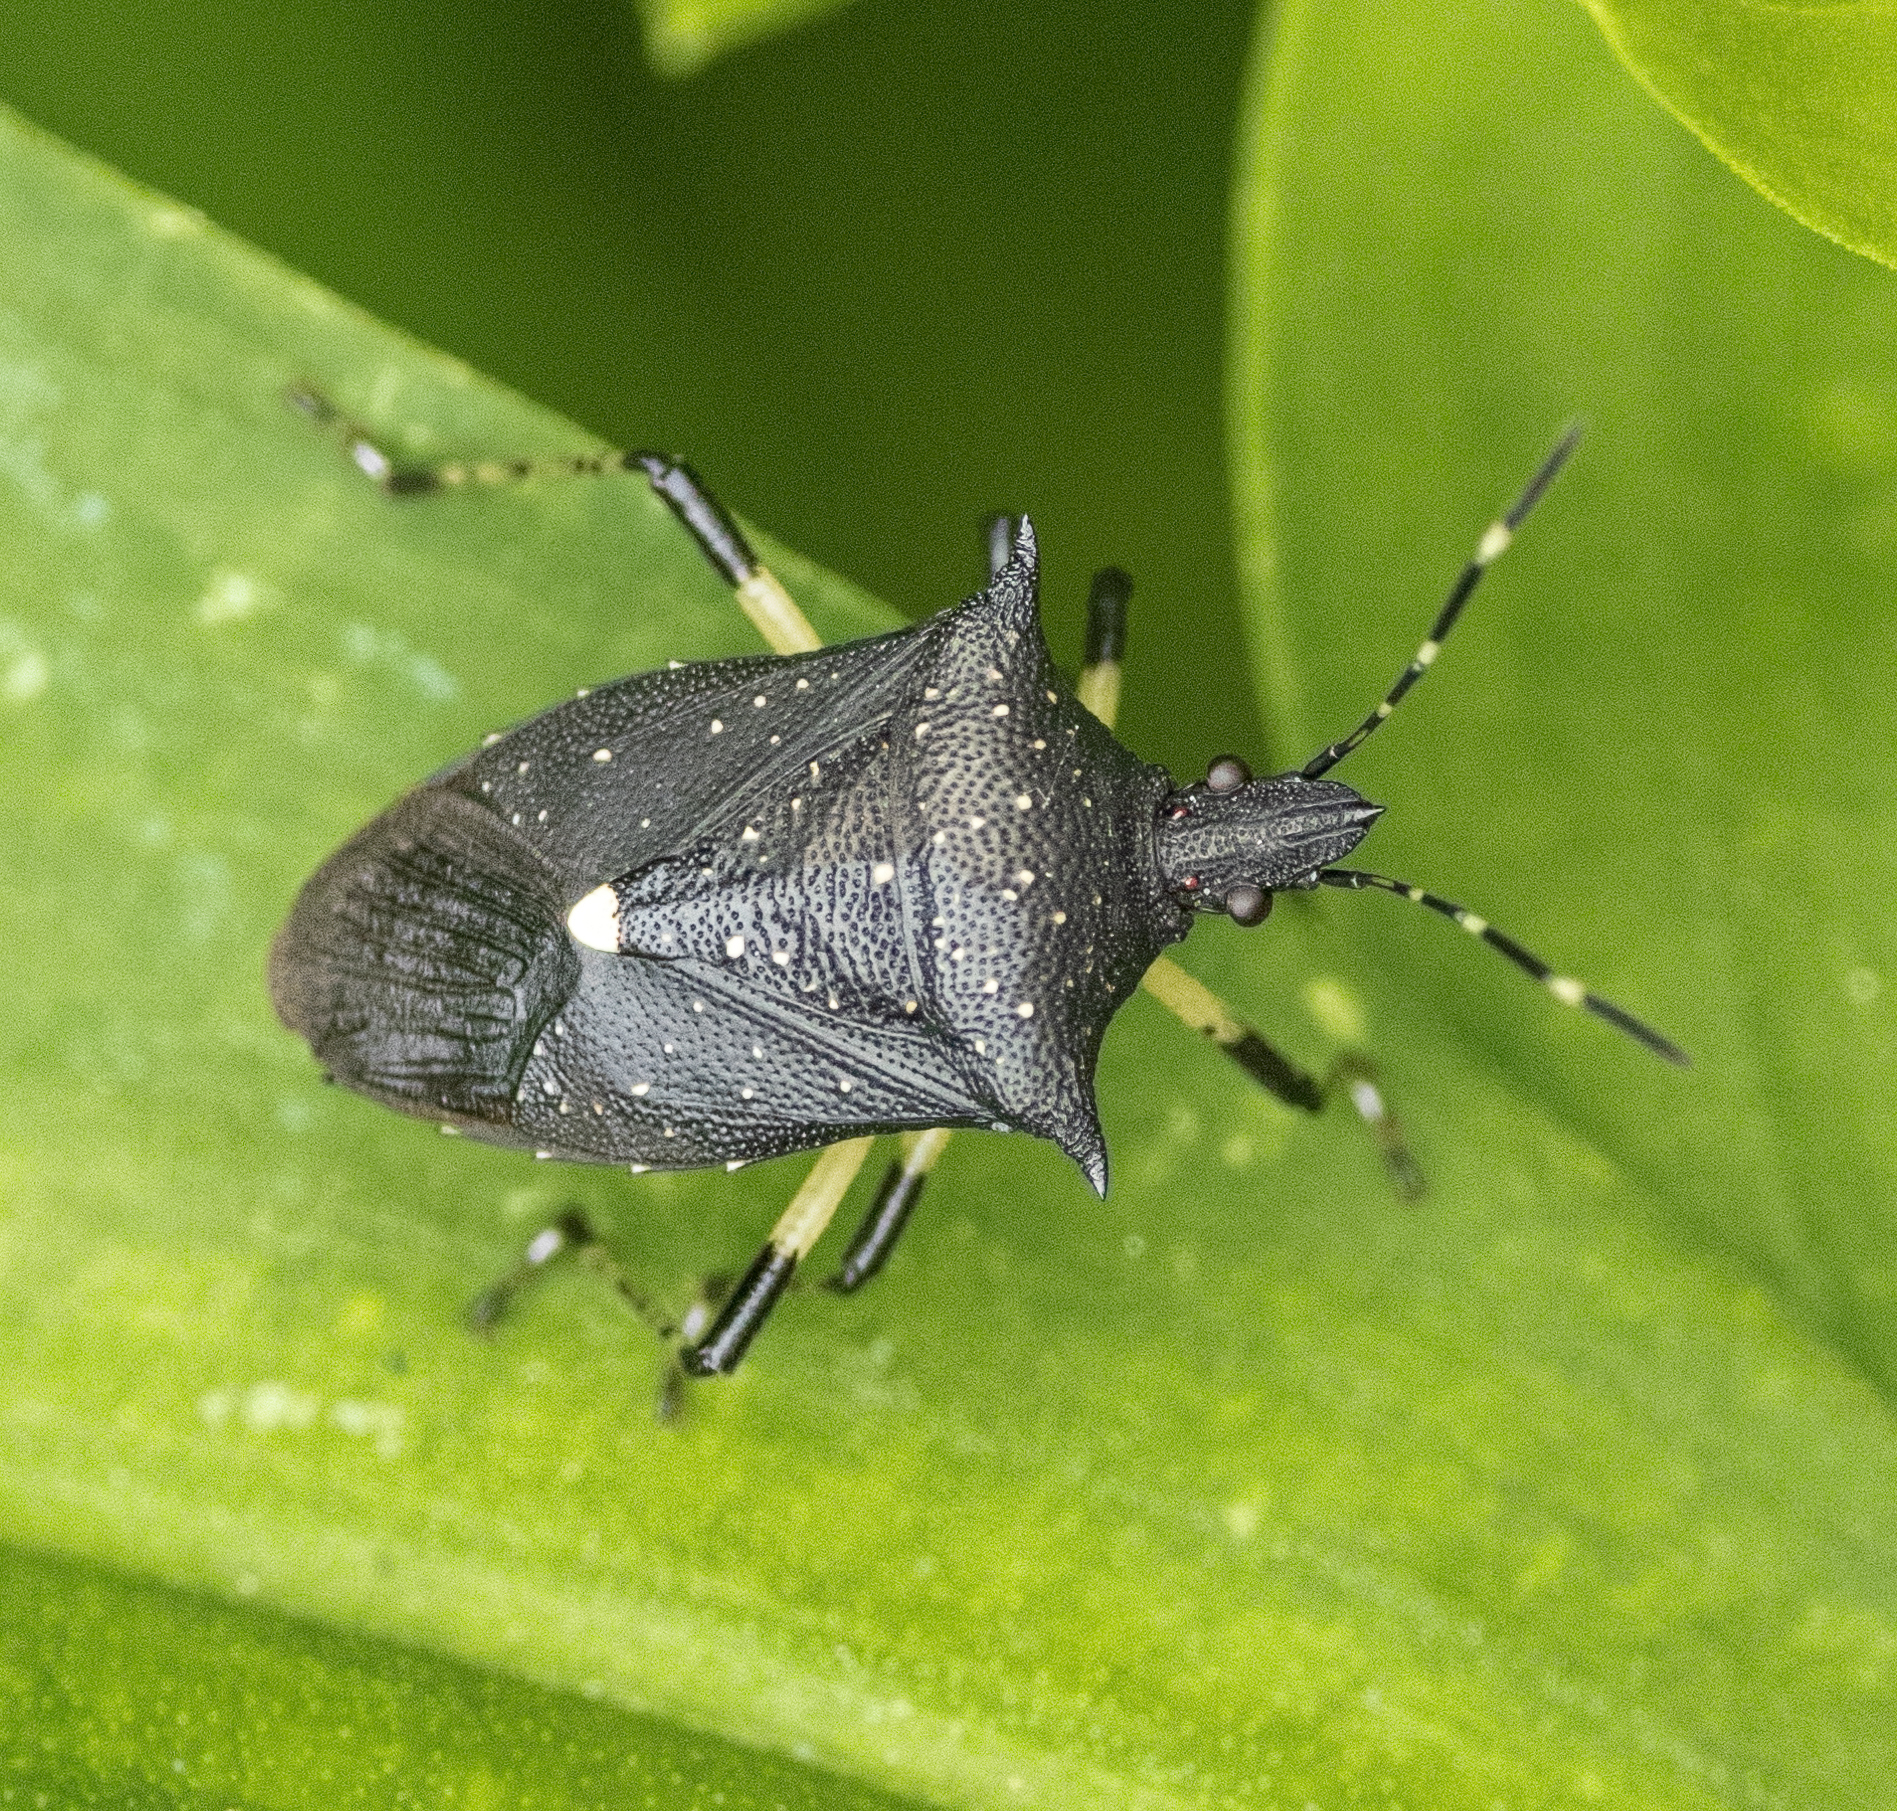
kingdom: Animalia
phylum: Arthropoda
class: Insecta
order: Hemiptera
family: Pentatomidae
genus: Proxys
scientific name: Proxys punctulatus
